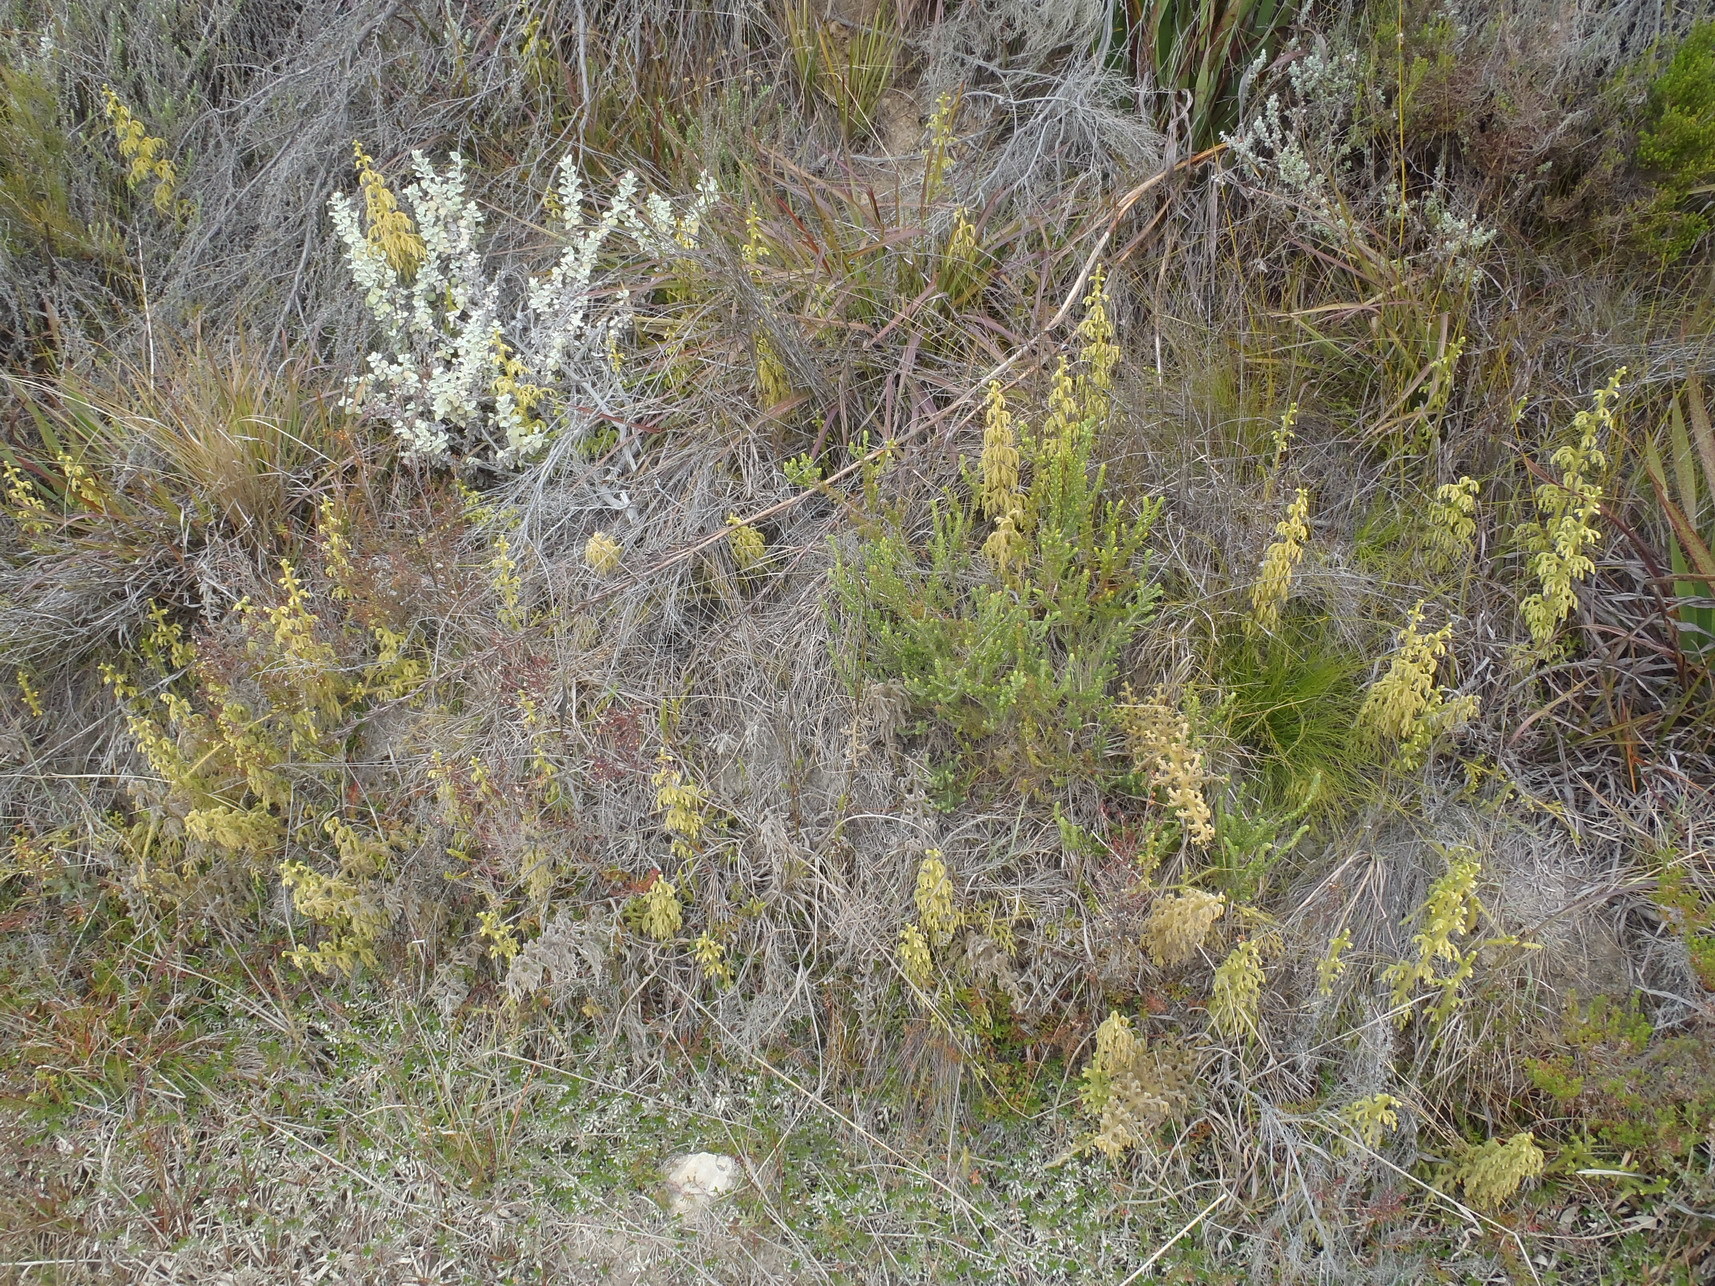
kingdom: Plantae
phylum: Tracheophyta
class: Lycopodiopsida
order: Lycopodiales
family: Lycopodiaceae
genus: Palhinhaea
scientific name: Palhinhaea cernua
